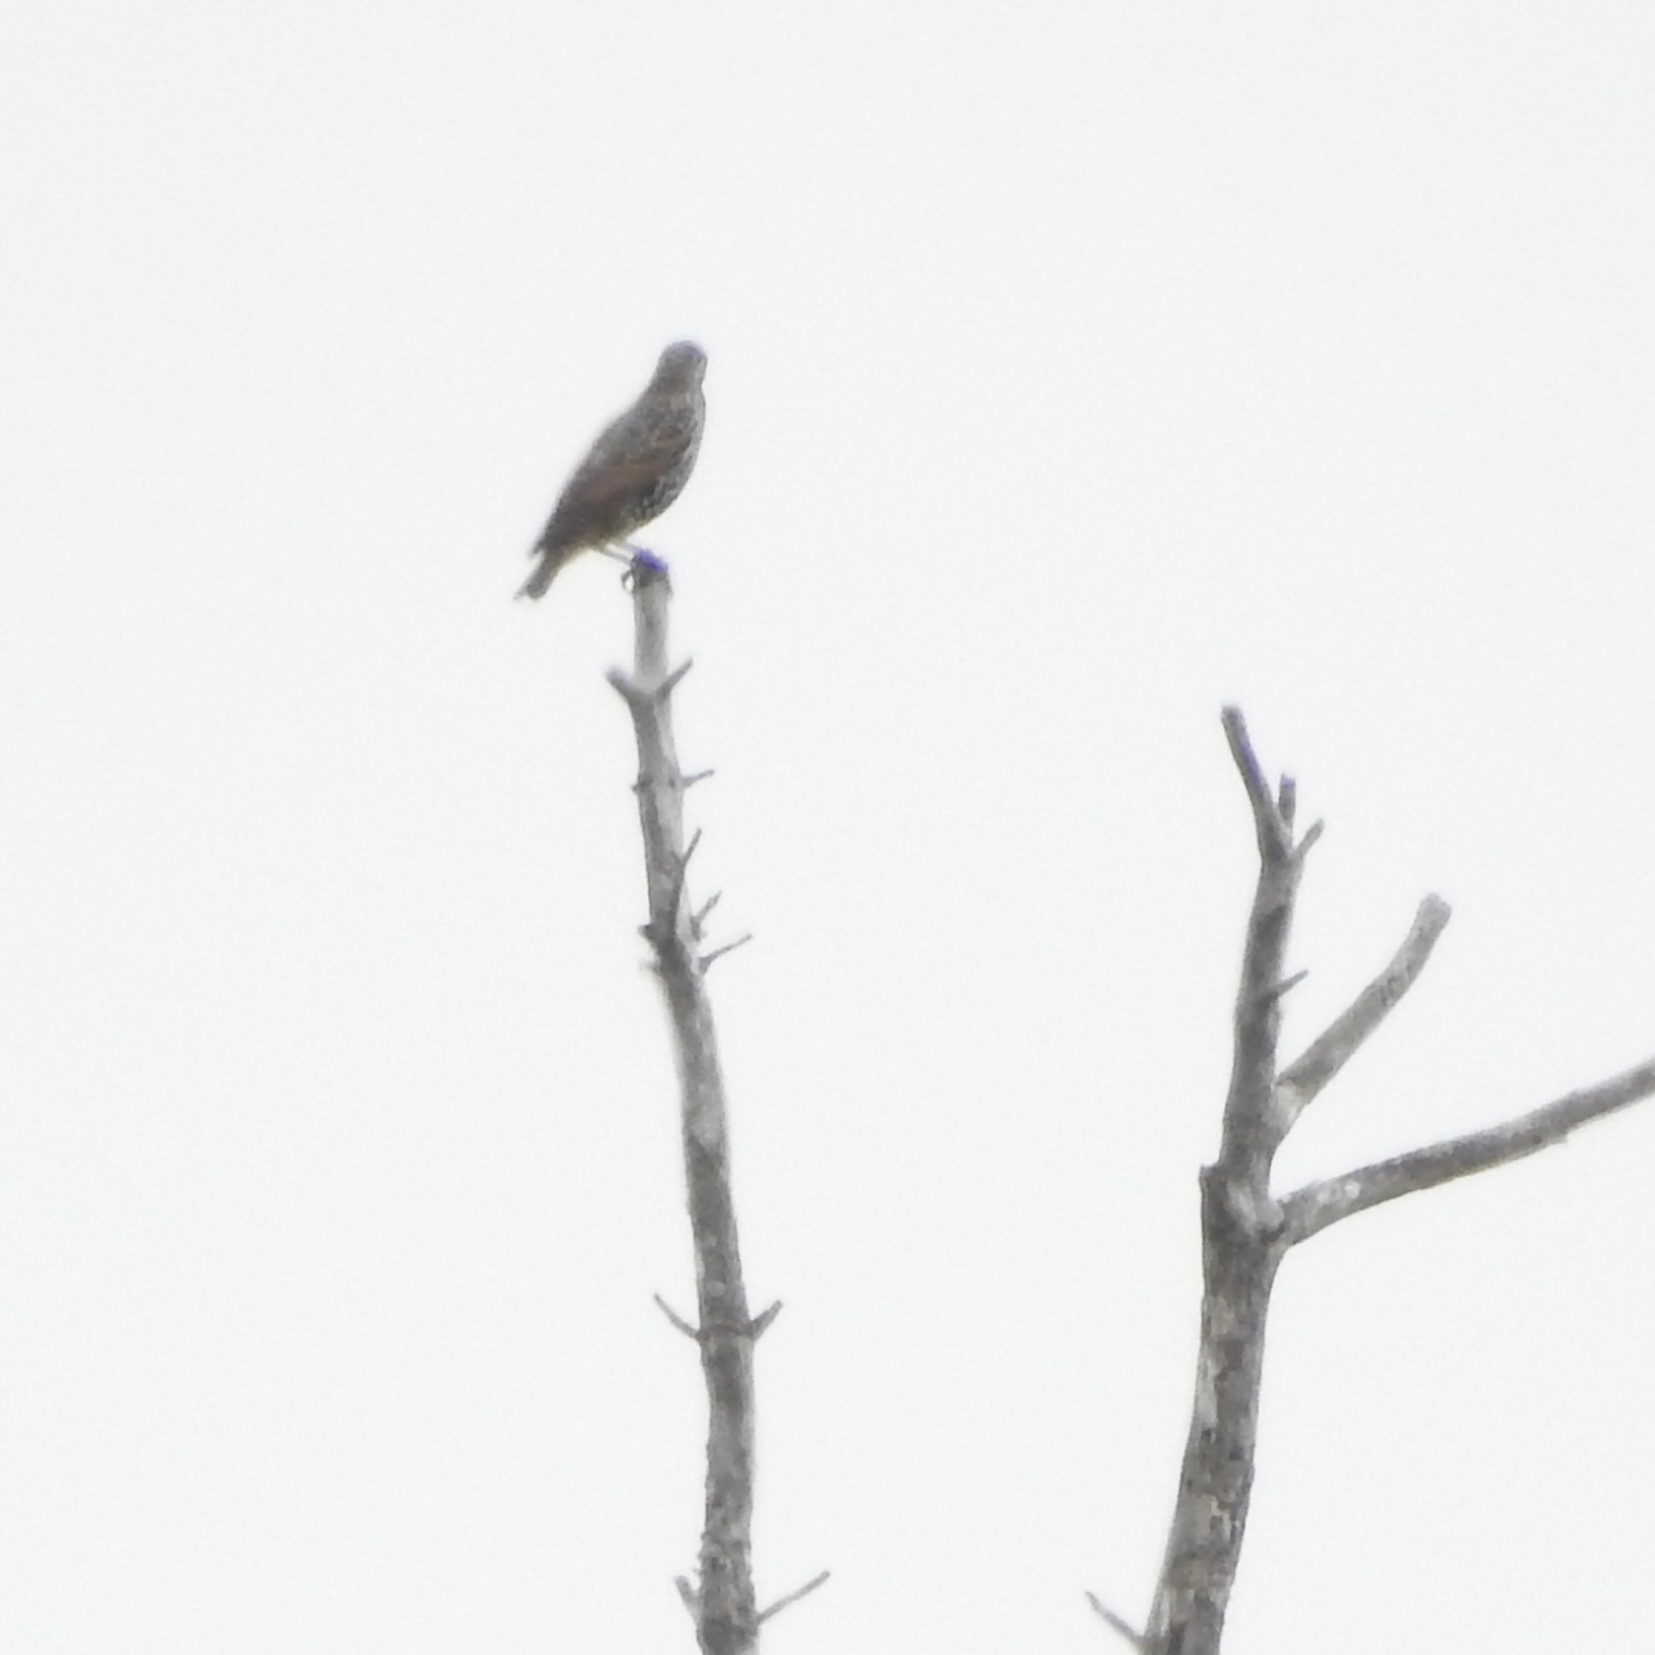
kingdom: Animalia
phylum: Chordata
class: Aves
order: Passeriformes
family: Sturnidae
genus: Sturnus
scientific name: Sturnus vulgaris
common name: Common starling
